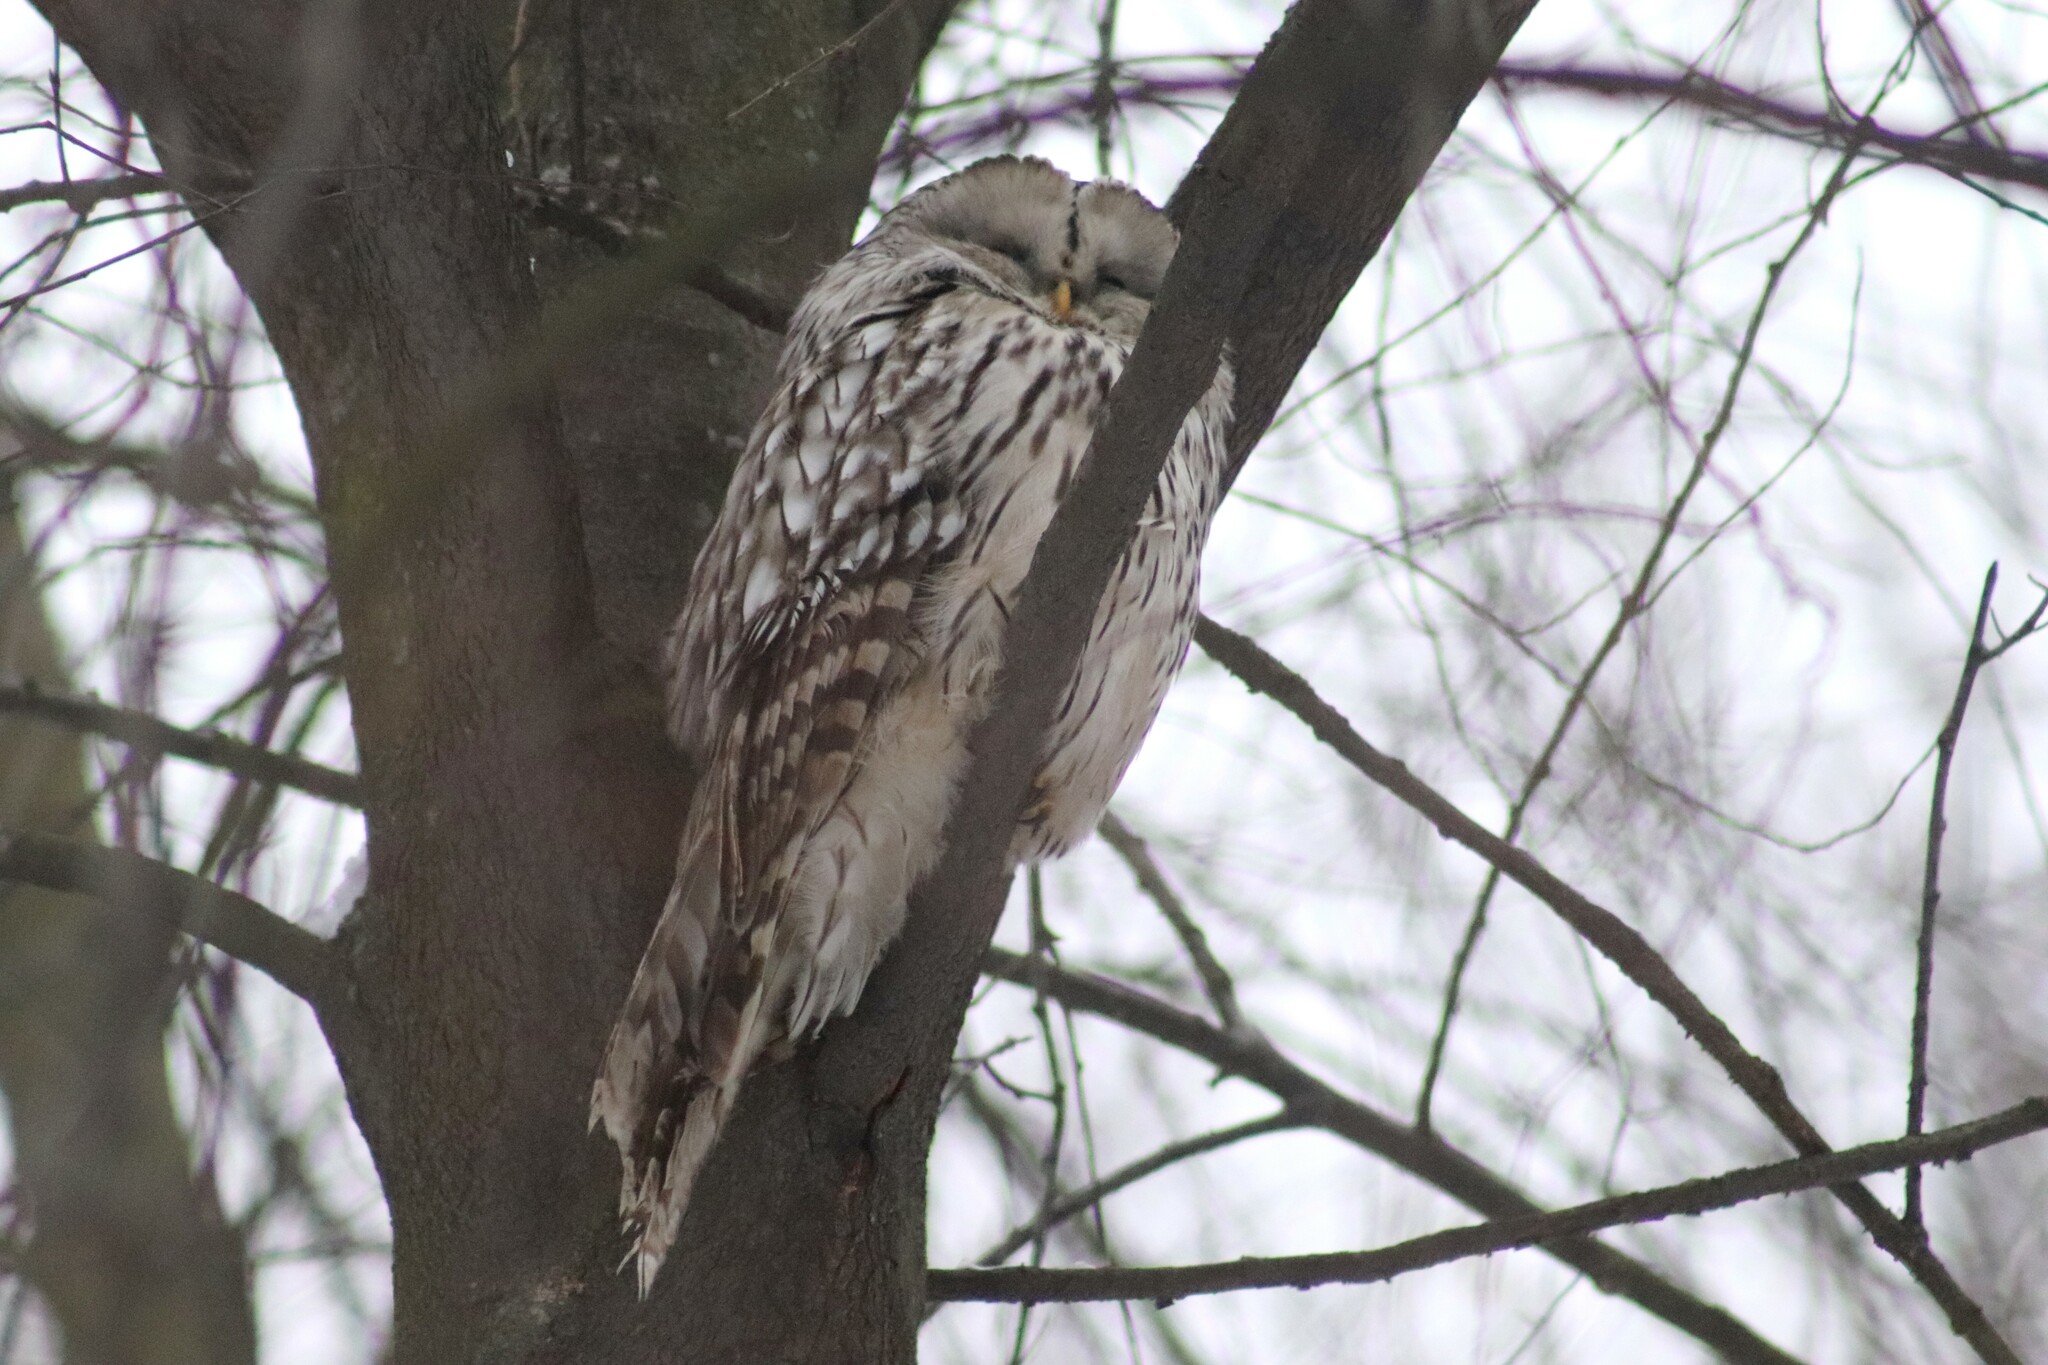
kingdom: Animalia
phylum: Chordata
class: Aves
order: Strigiformes
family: Strigidae
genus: Strix
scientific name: Strix uralensis
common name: Ural owl
